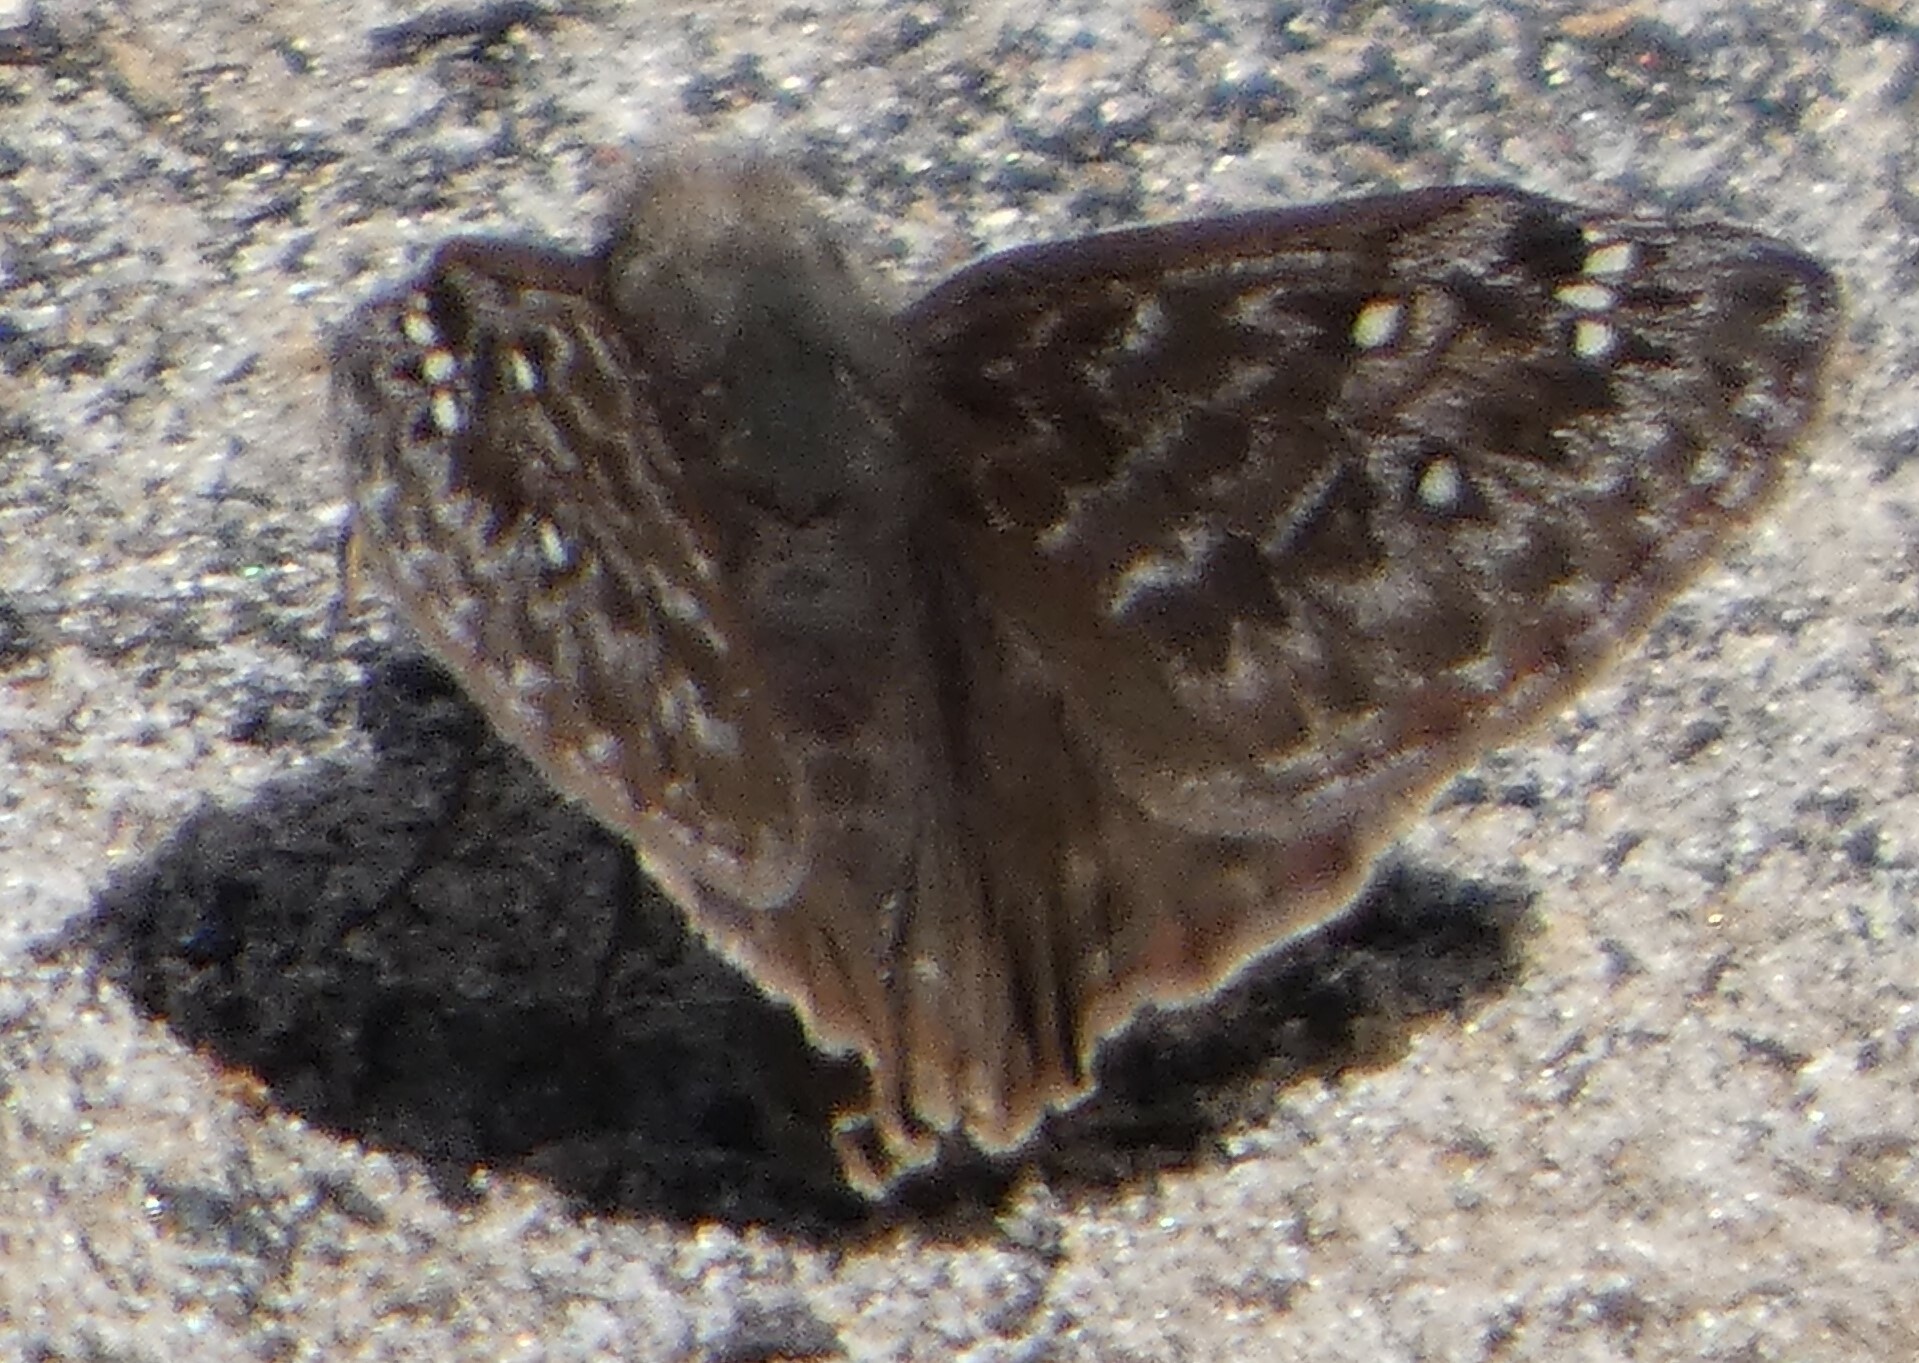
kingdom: Animalia
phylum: Arthropoda
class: Insecta
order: Lepidoptera
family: Hesperiidae
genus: Erynnis
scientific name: Erynnis juvenalis
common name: Juvenal's duskywing
